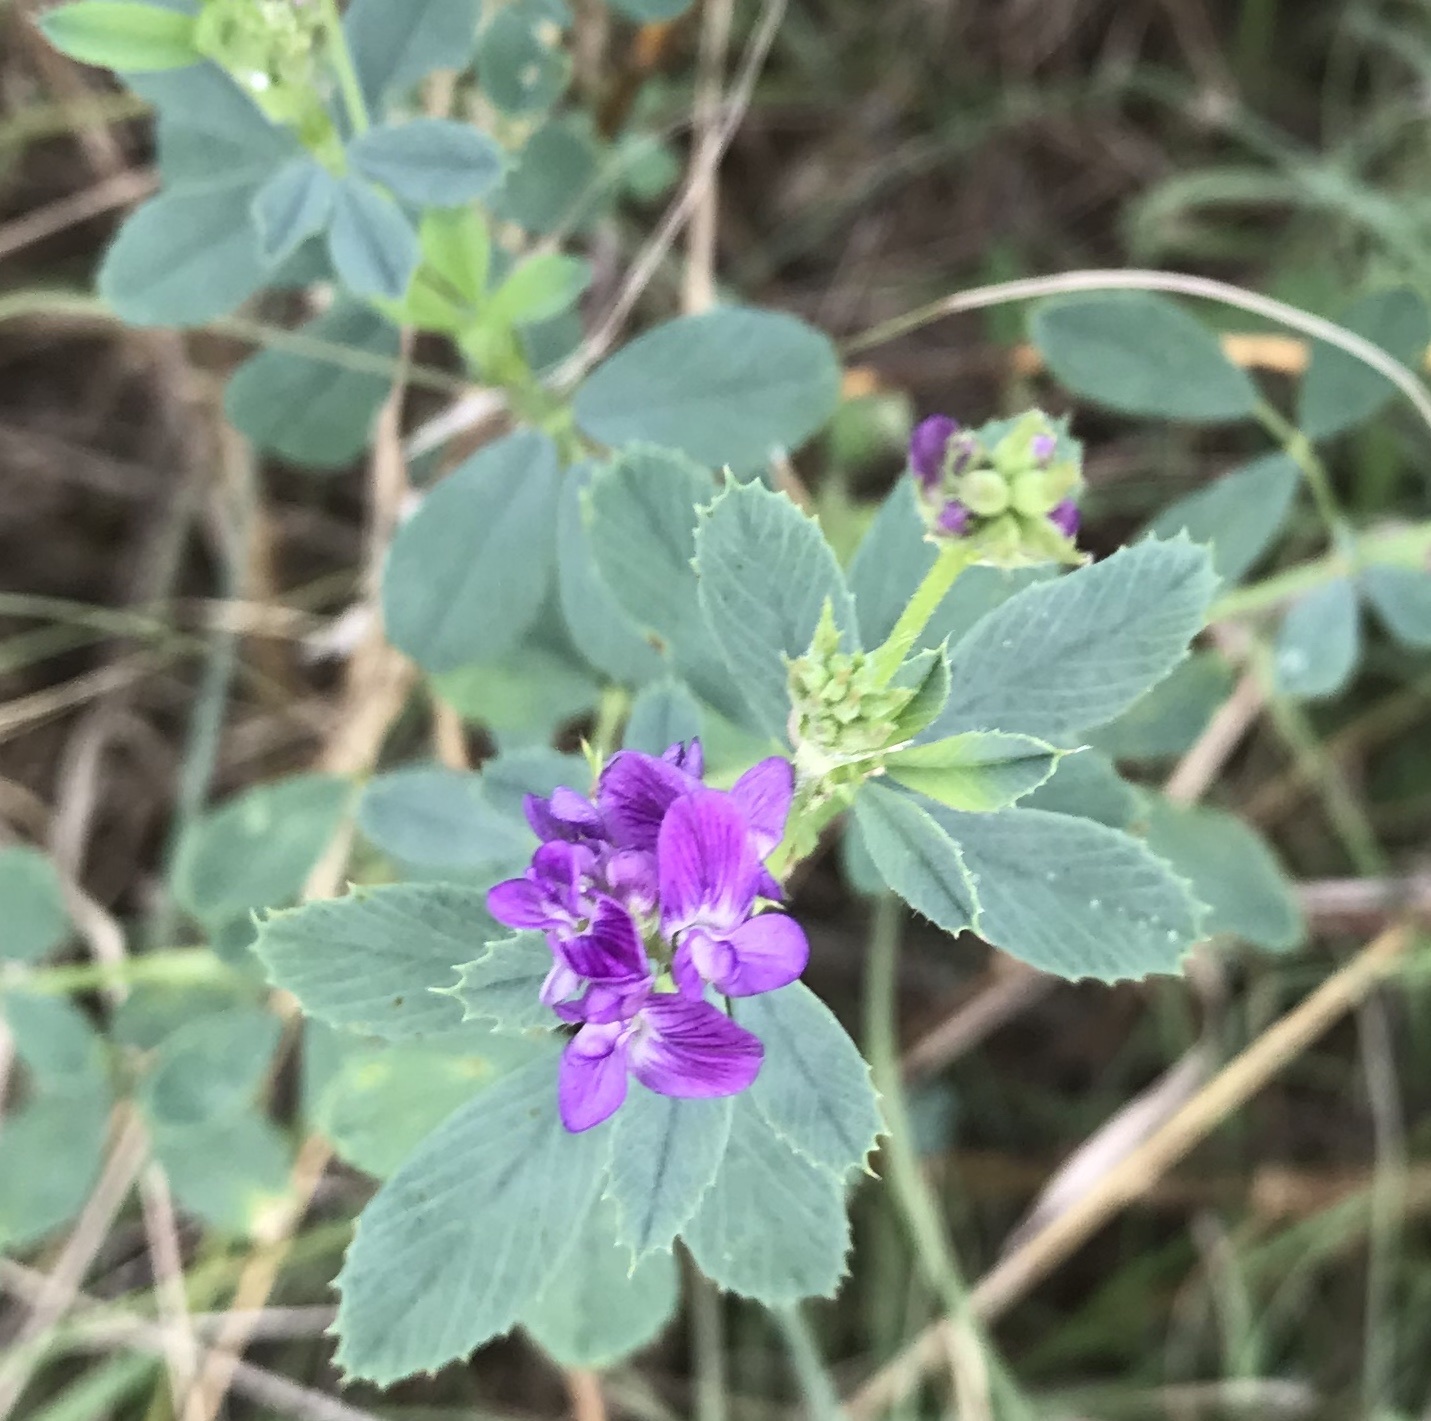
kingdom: Plantae
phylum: Tracheophyta
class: Magnoliopsida
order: Fabales
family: Fabaceae
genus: Medicago
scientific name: Medicago sativa
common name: Alfalfa
